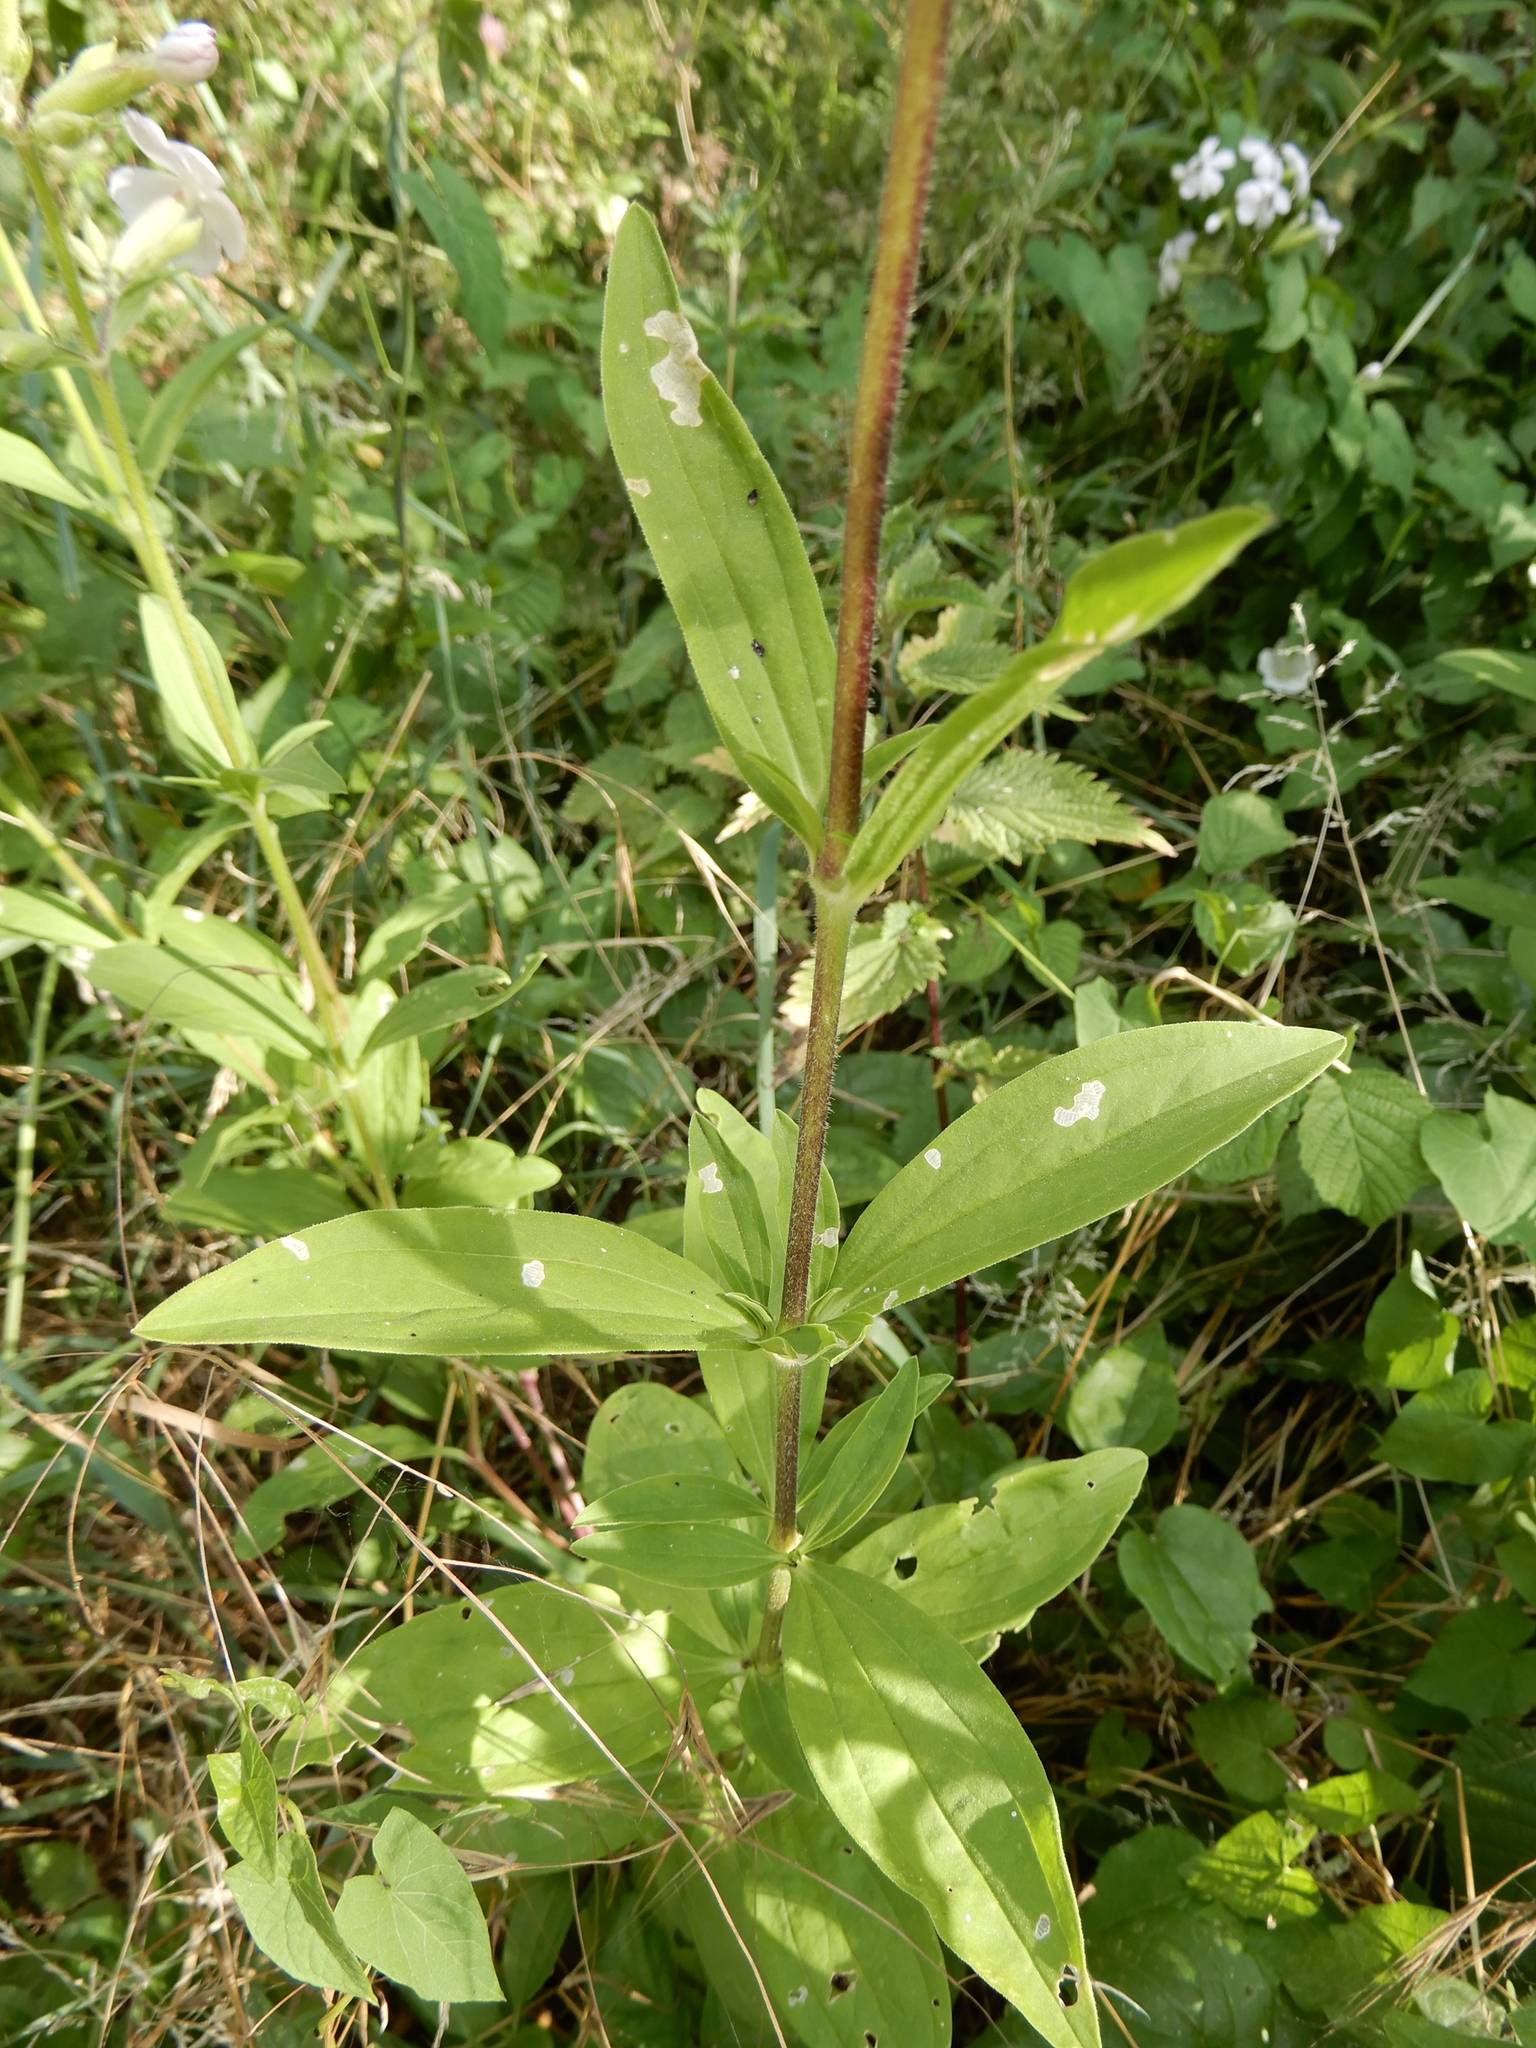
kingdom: Plantae
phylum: Tracheophyta
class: Magnoliopsida
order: Caryophyllales
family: Caryophyllaceae
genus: Saponaria
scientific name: Saponaria officinalis
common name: Soapwort
